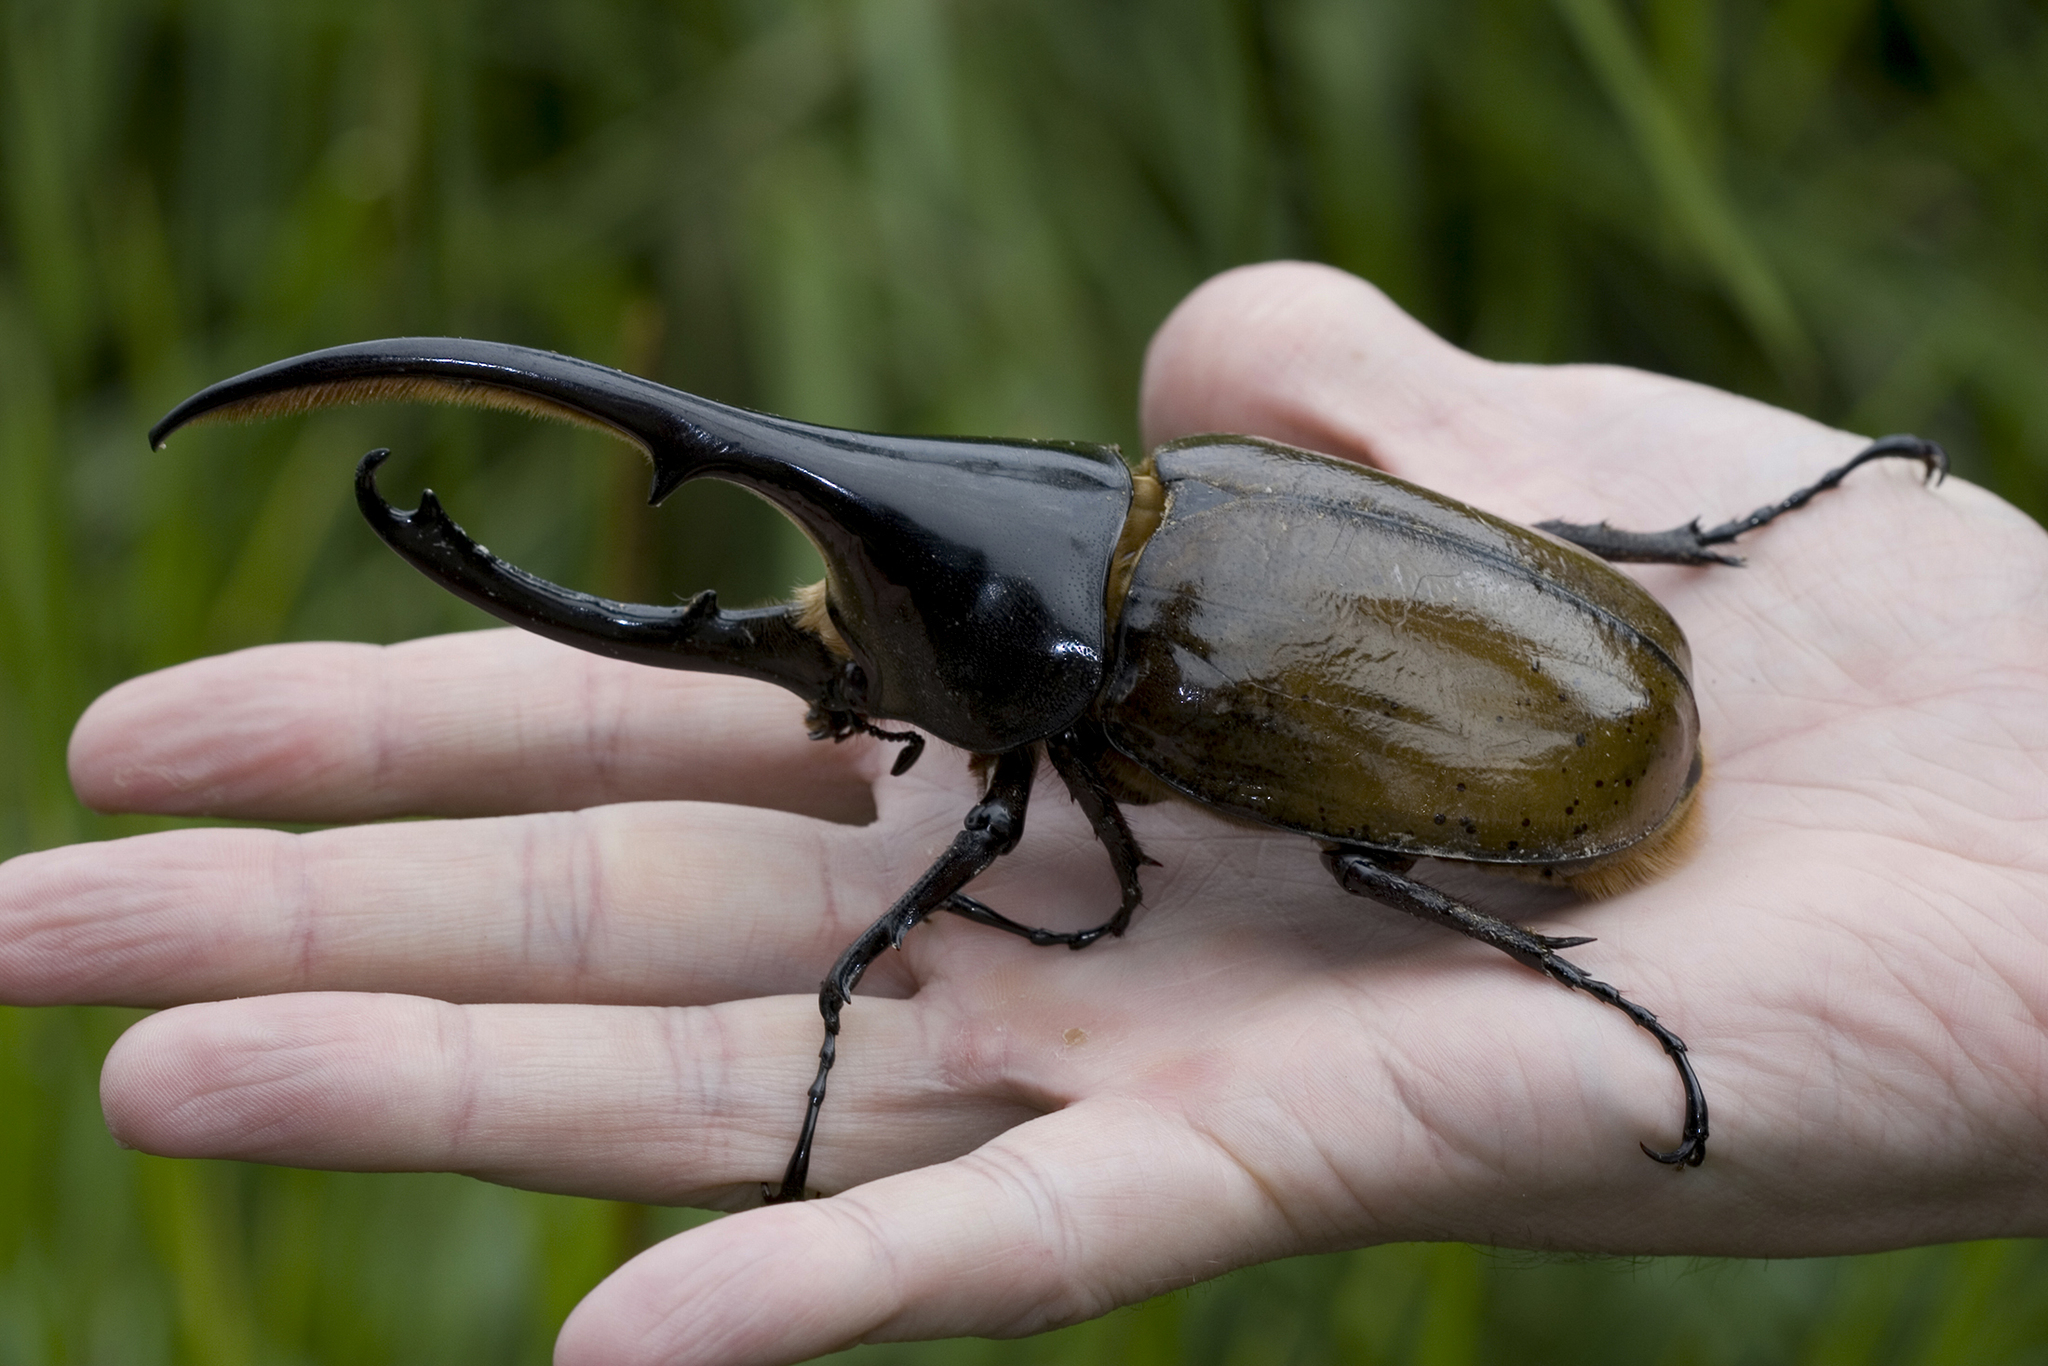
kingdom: Animalia
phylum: Arthropoda
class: Insecta
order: Coleoptera
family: Scarabaeidae
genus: Dynastes
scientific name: Dynastes
